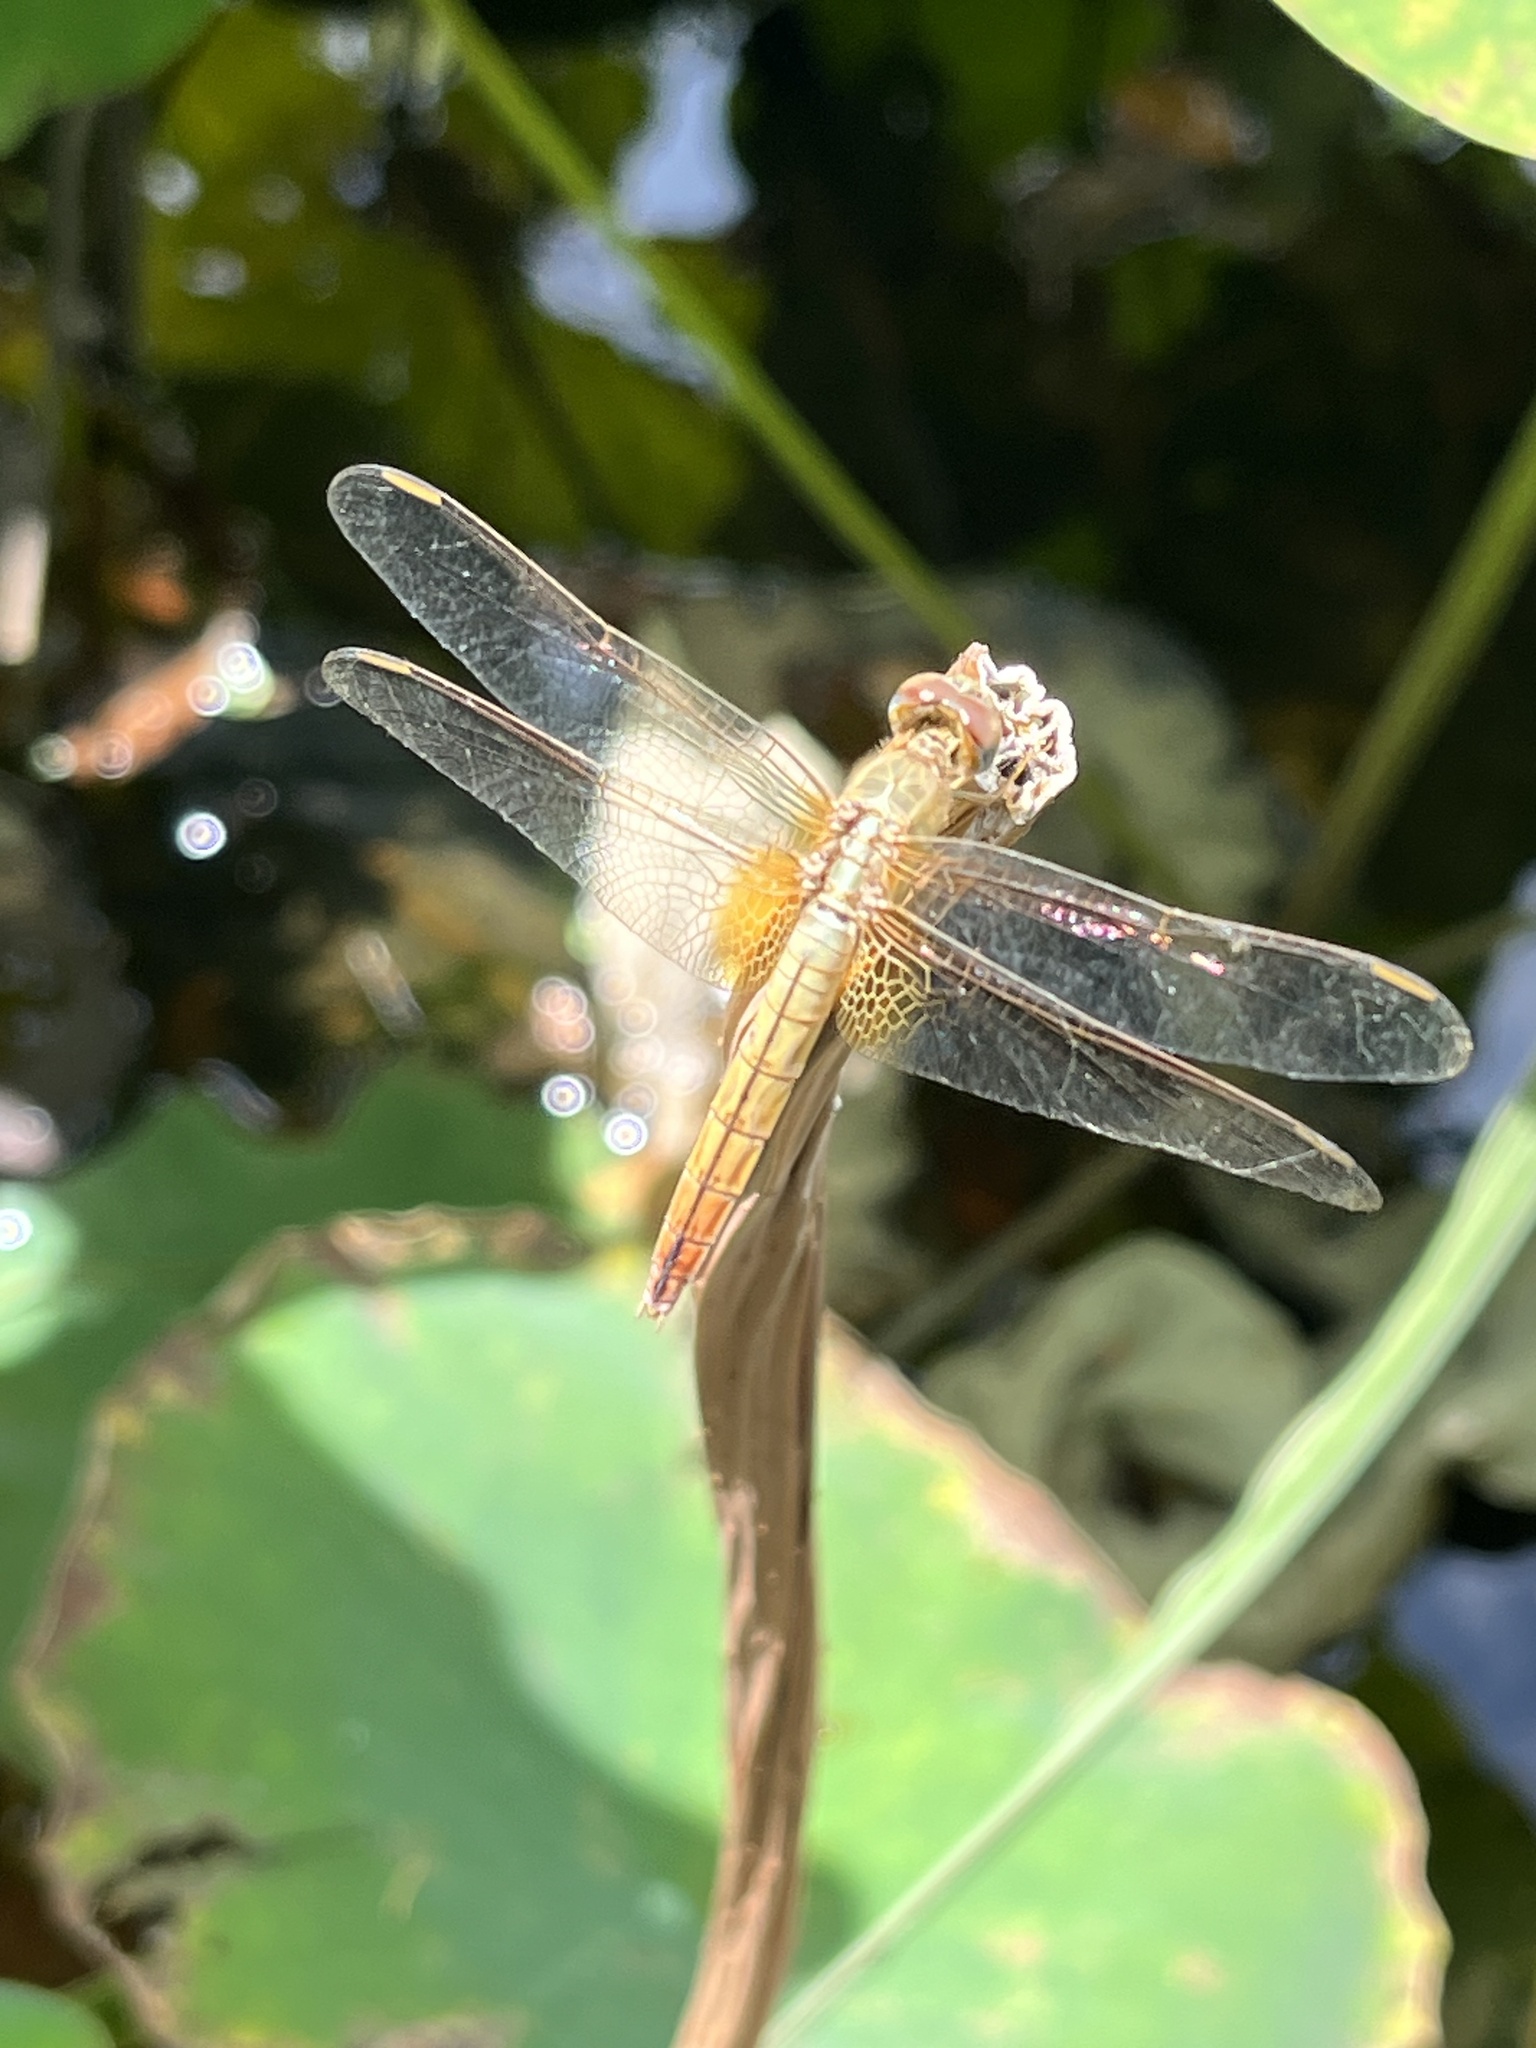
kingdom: Animalia
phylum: Arthropoda
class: Insecta
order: Odonata
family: Libellulidae
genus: Crocothemis
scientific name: Crocothemis servilia
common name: Scarlet skimmer
